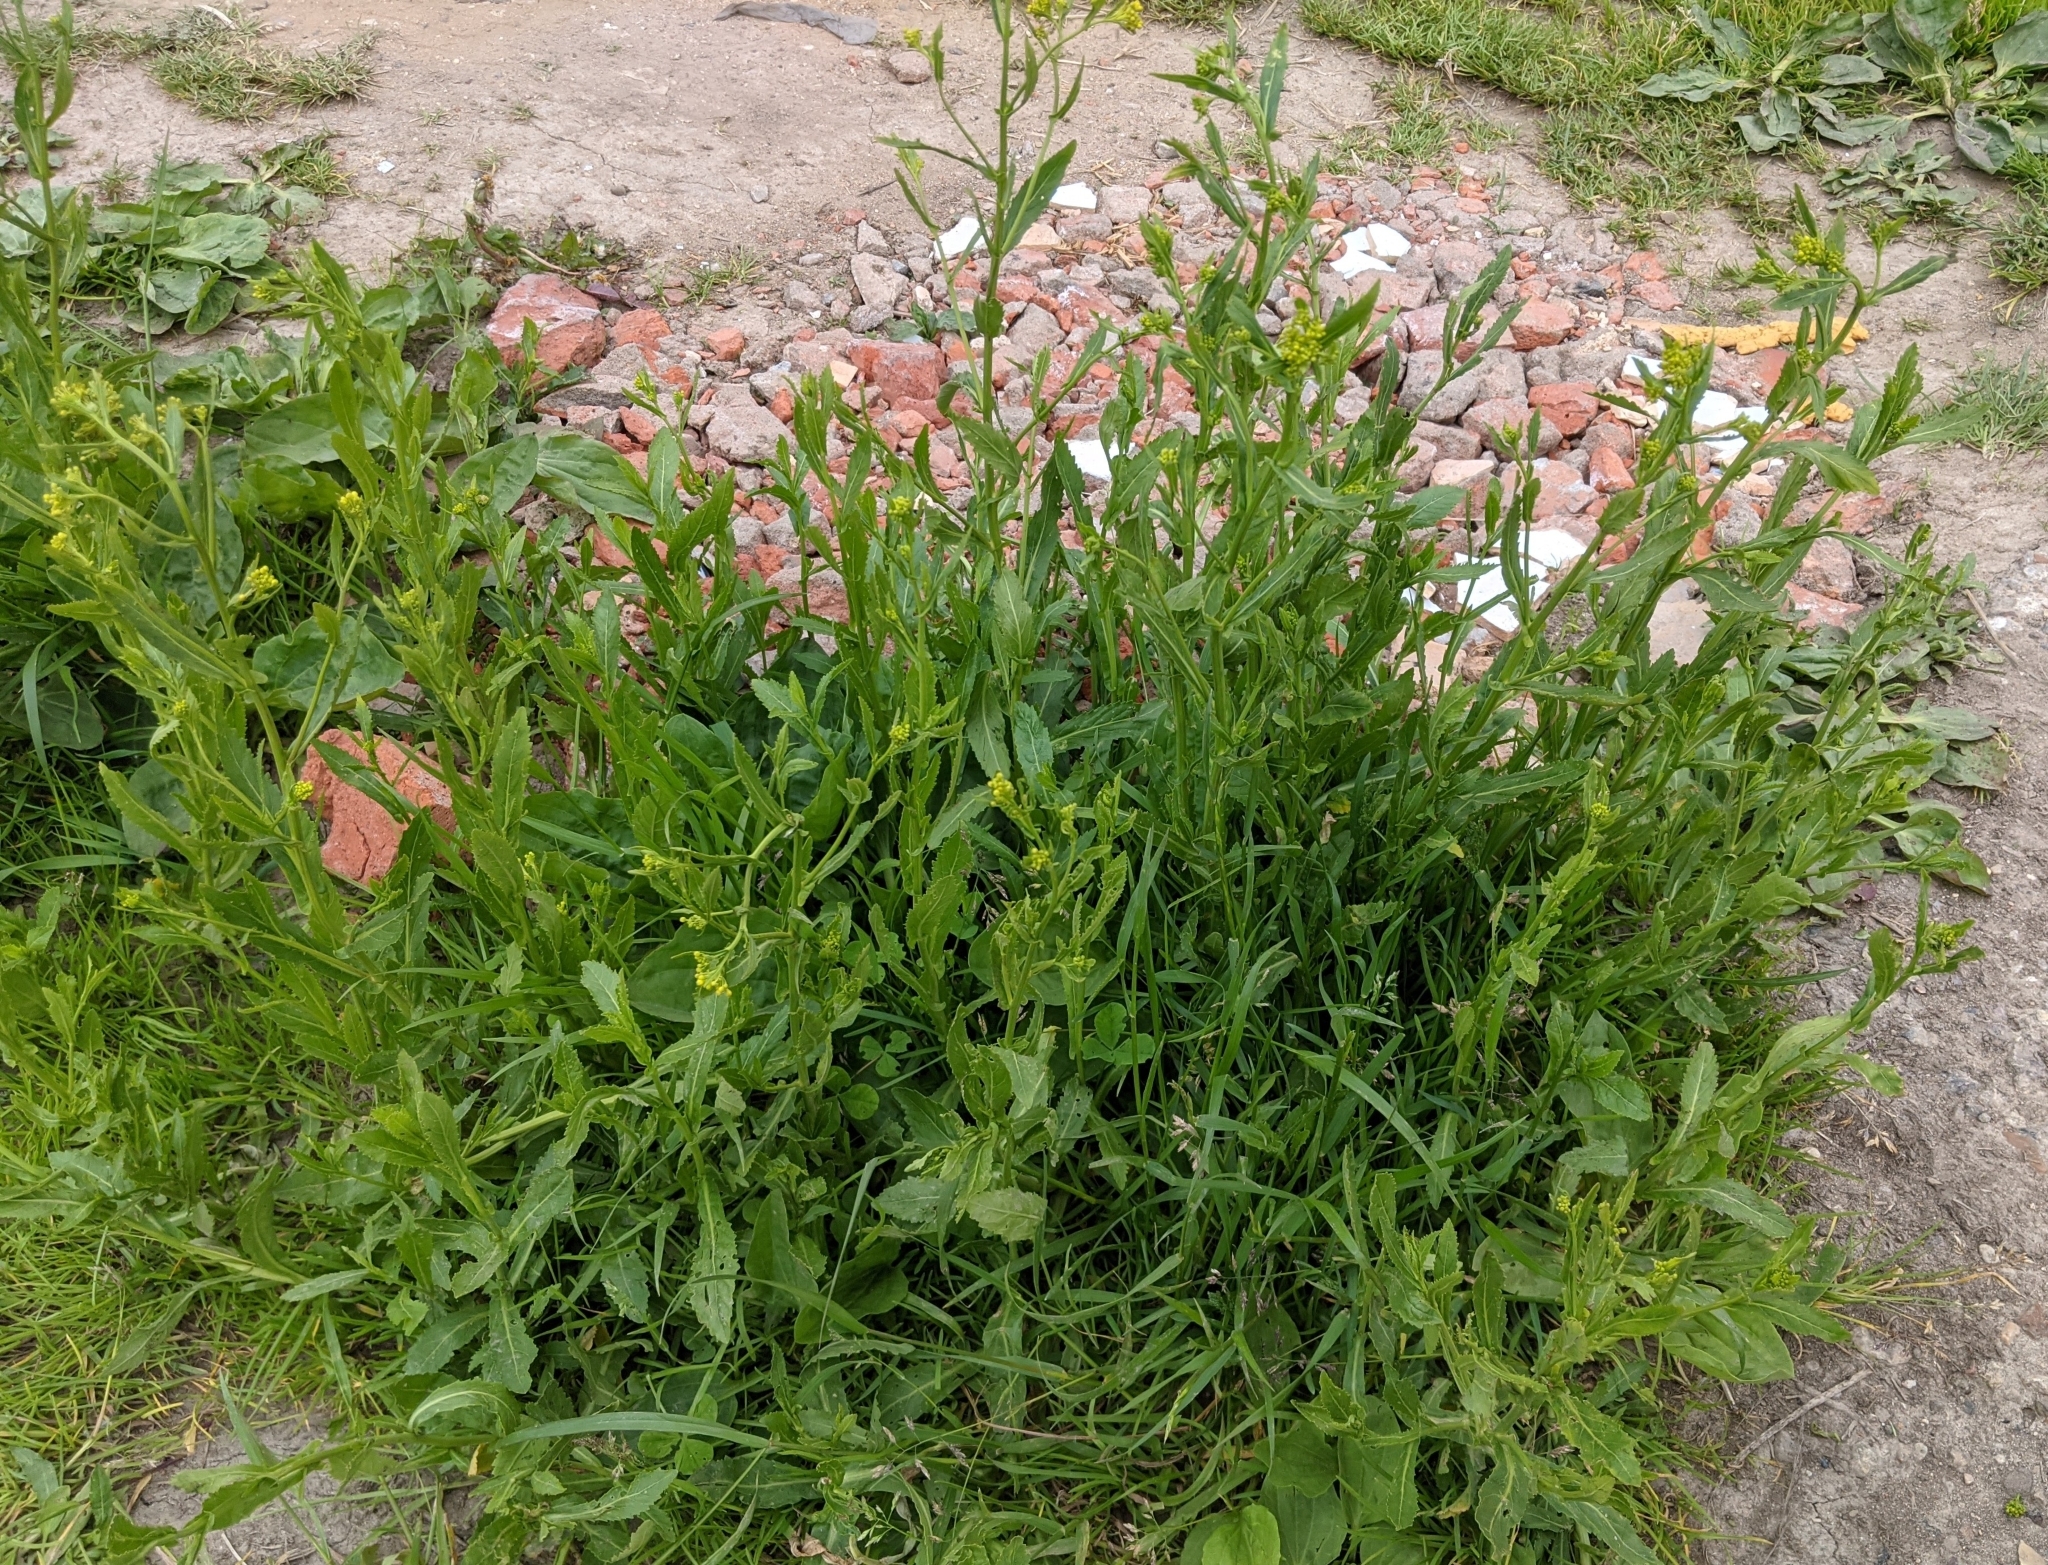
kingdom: Plantae
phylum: Tracheophyta
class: Magnoliopsida
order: Brassicales
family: Brassicaceae
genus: Rorippa
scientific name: Rorippa austriaca
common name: Austrian yellow-cress
